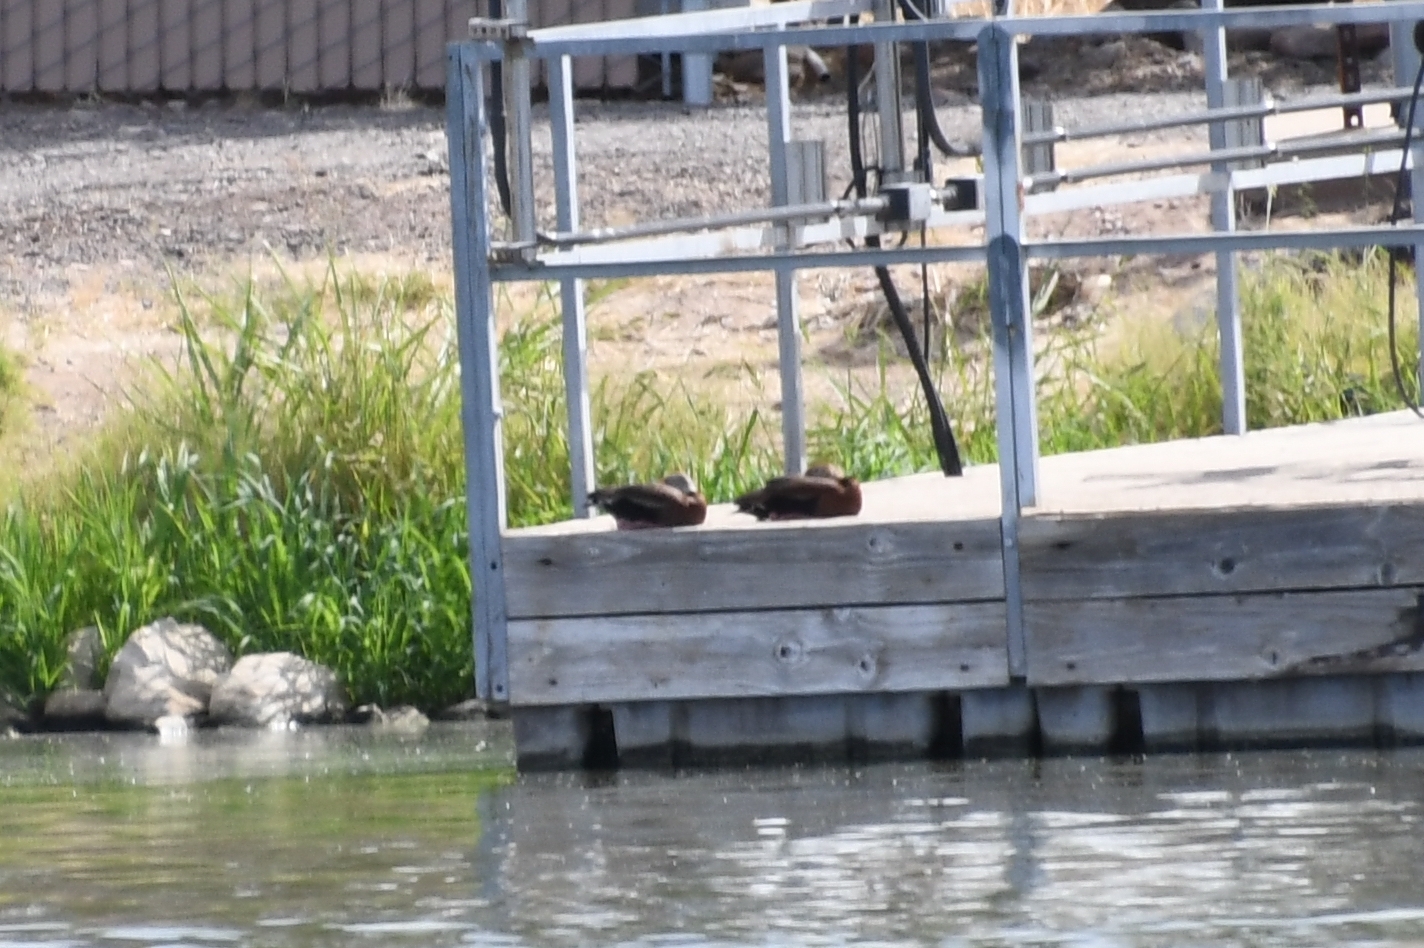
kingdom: Animalia
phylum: Chordata
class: Aves
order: Anseriformes
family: Anatidae
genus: Dendrocygna
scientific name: Dendrocygna autumnalis
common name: Black-bellied whistling duck
